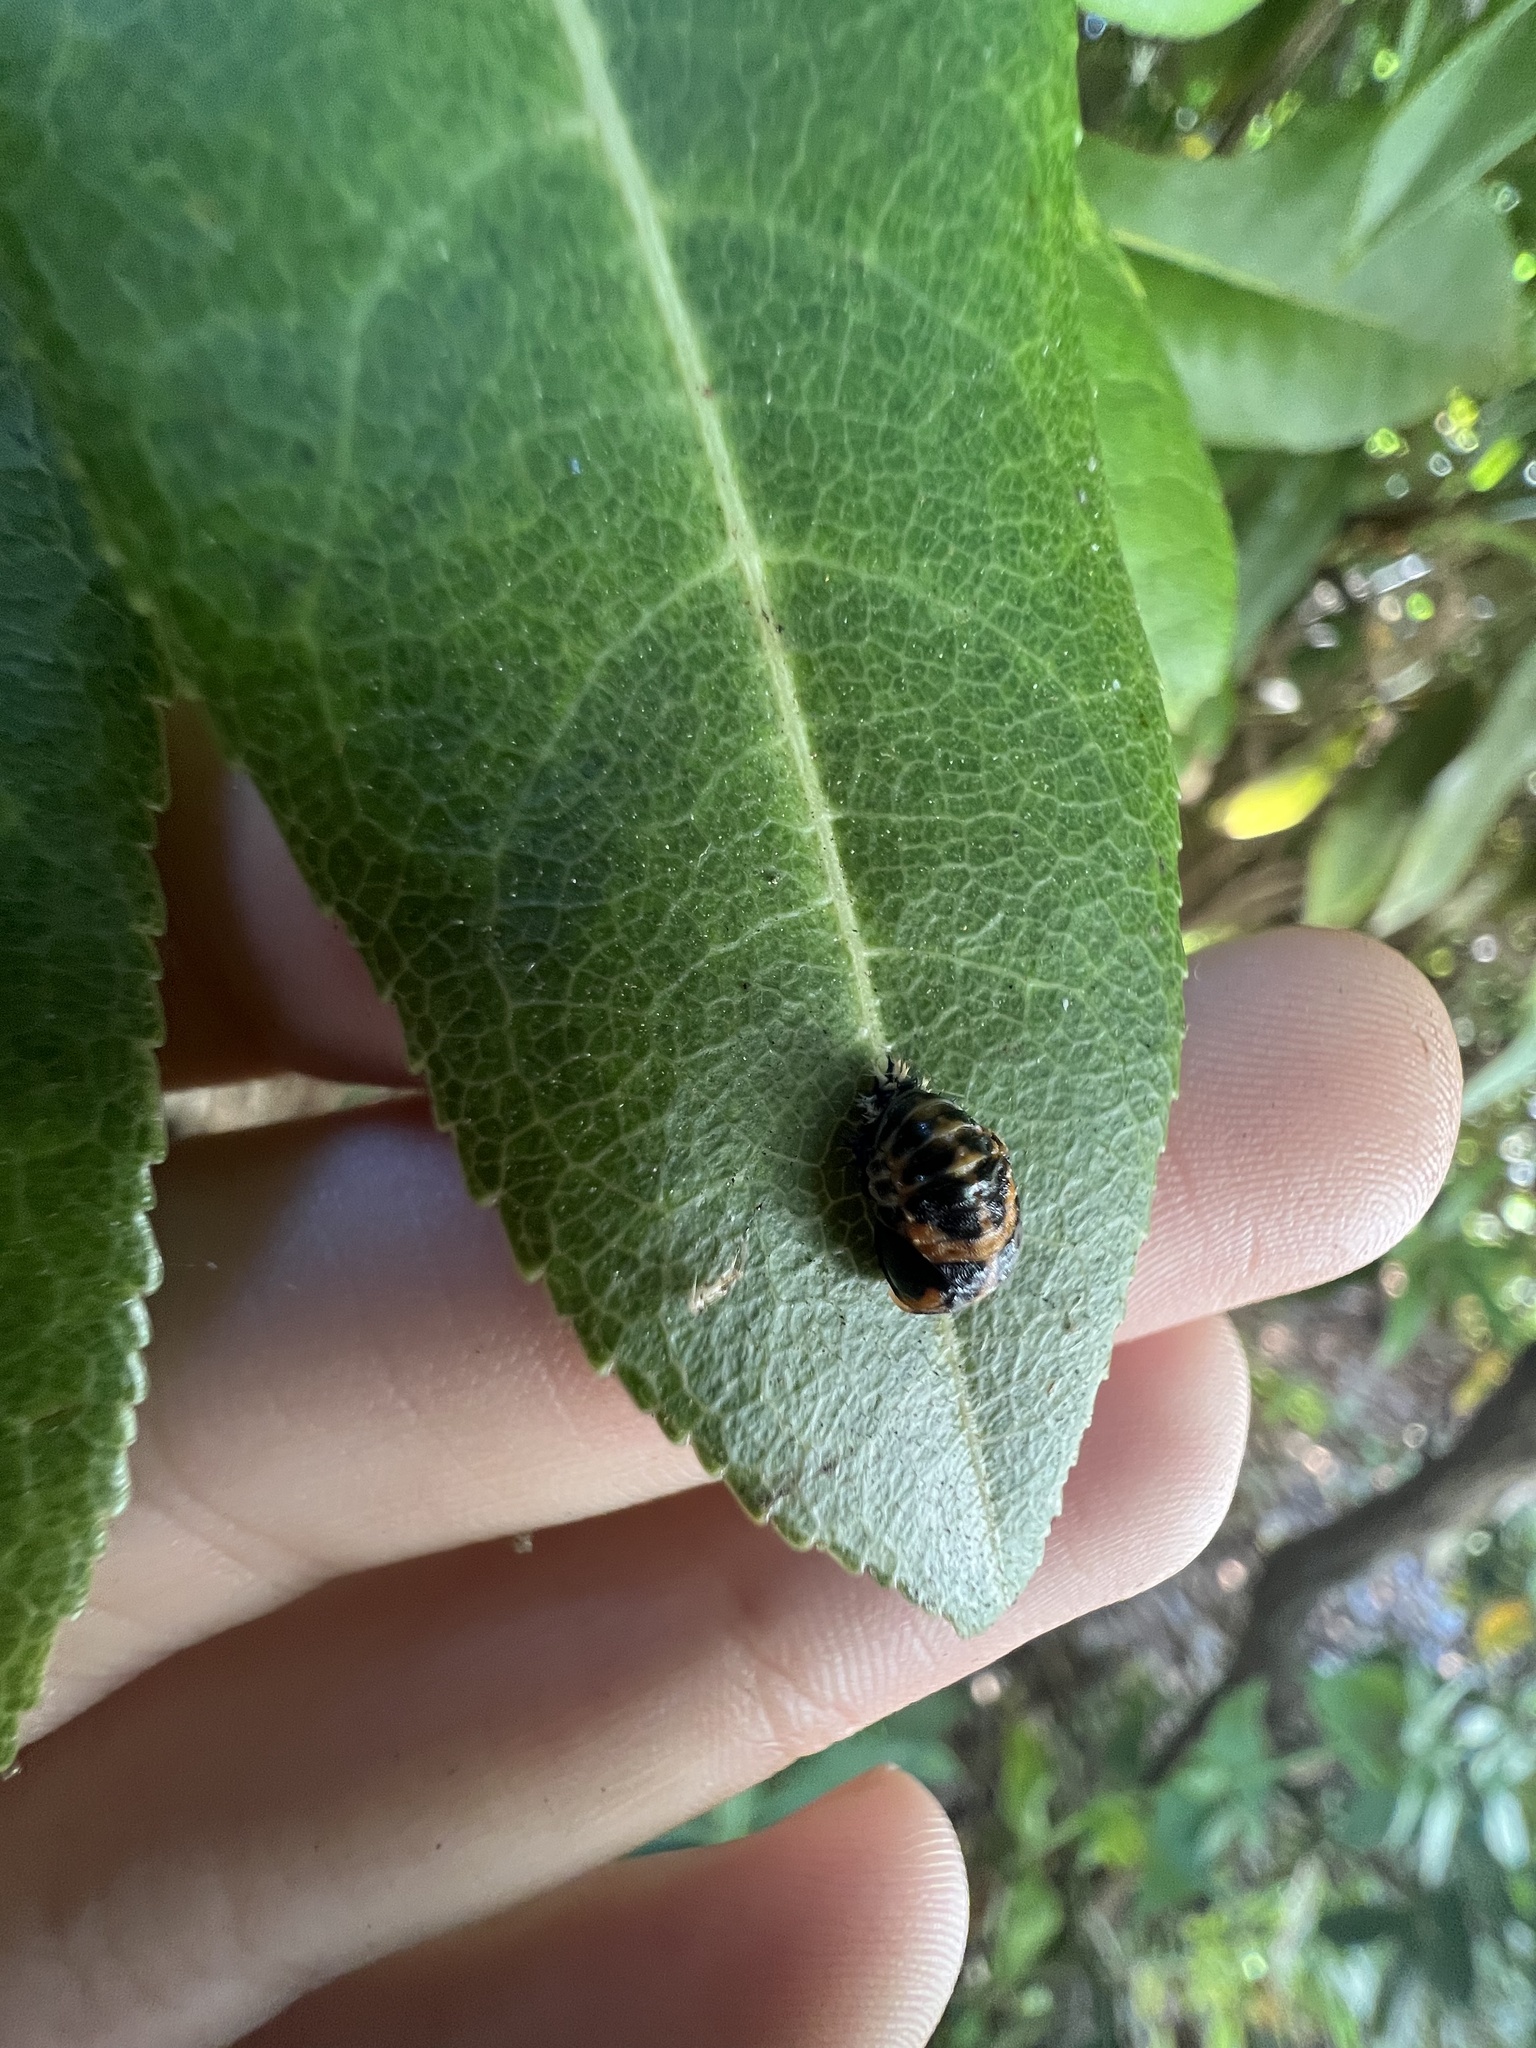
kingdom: Animalia
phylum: Arthropoda
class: Insecta
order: Coleoptera
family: Coccinellidae
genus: Harmonia
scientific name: Harmonia axyridis
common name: Harlequin ladybird
